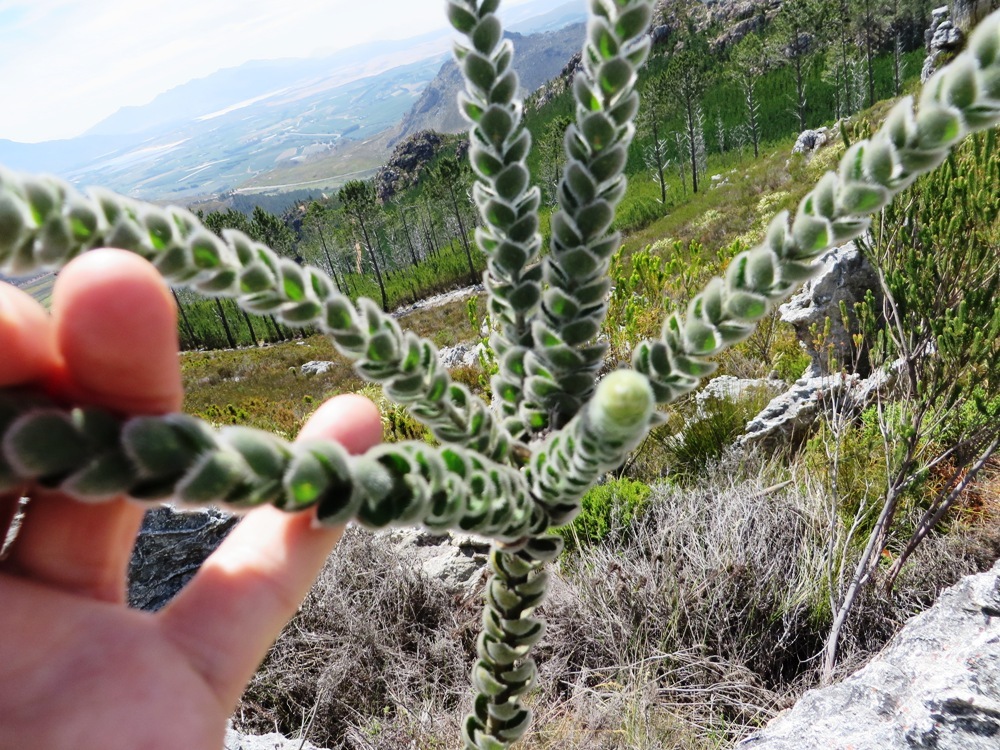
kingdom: Plantae
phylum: Tracheophyta
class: Magnoliopsida
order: Fabales
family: Fabaceae
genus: Liparia
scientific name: Liparia vestita
